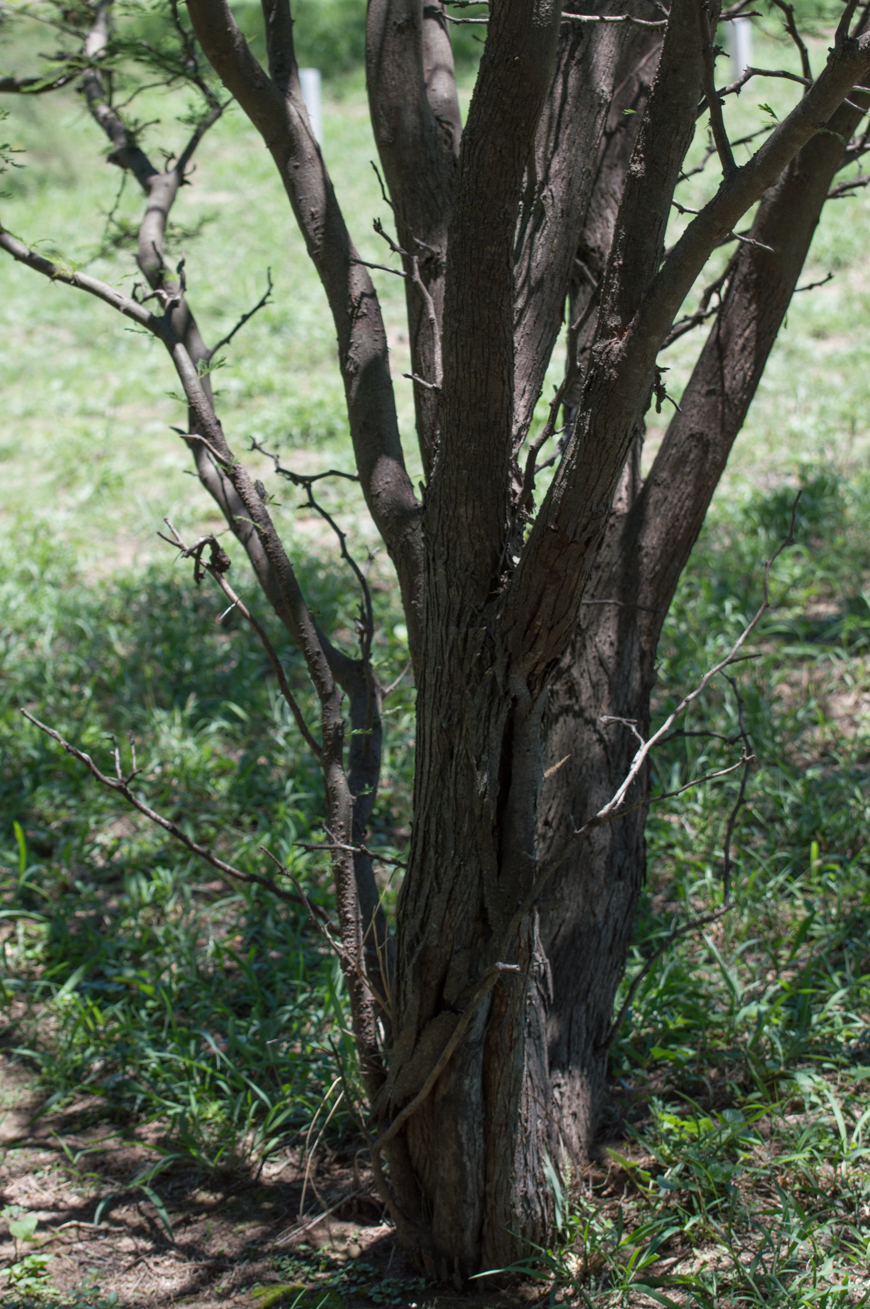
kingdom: Plantae
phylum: Tracheophyta
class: Magnoliopsida
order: Fabales
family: Fabaceae
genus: Vachellia
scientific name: Vachellia aroma
